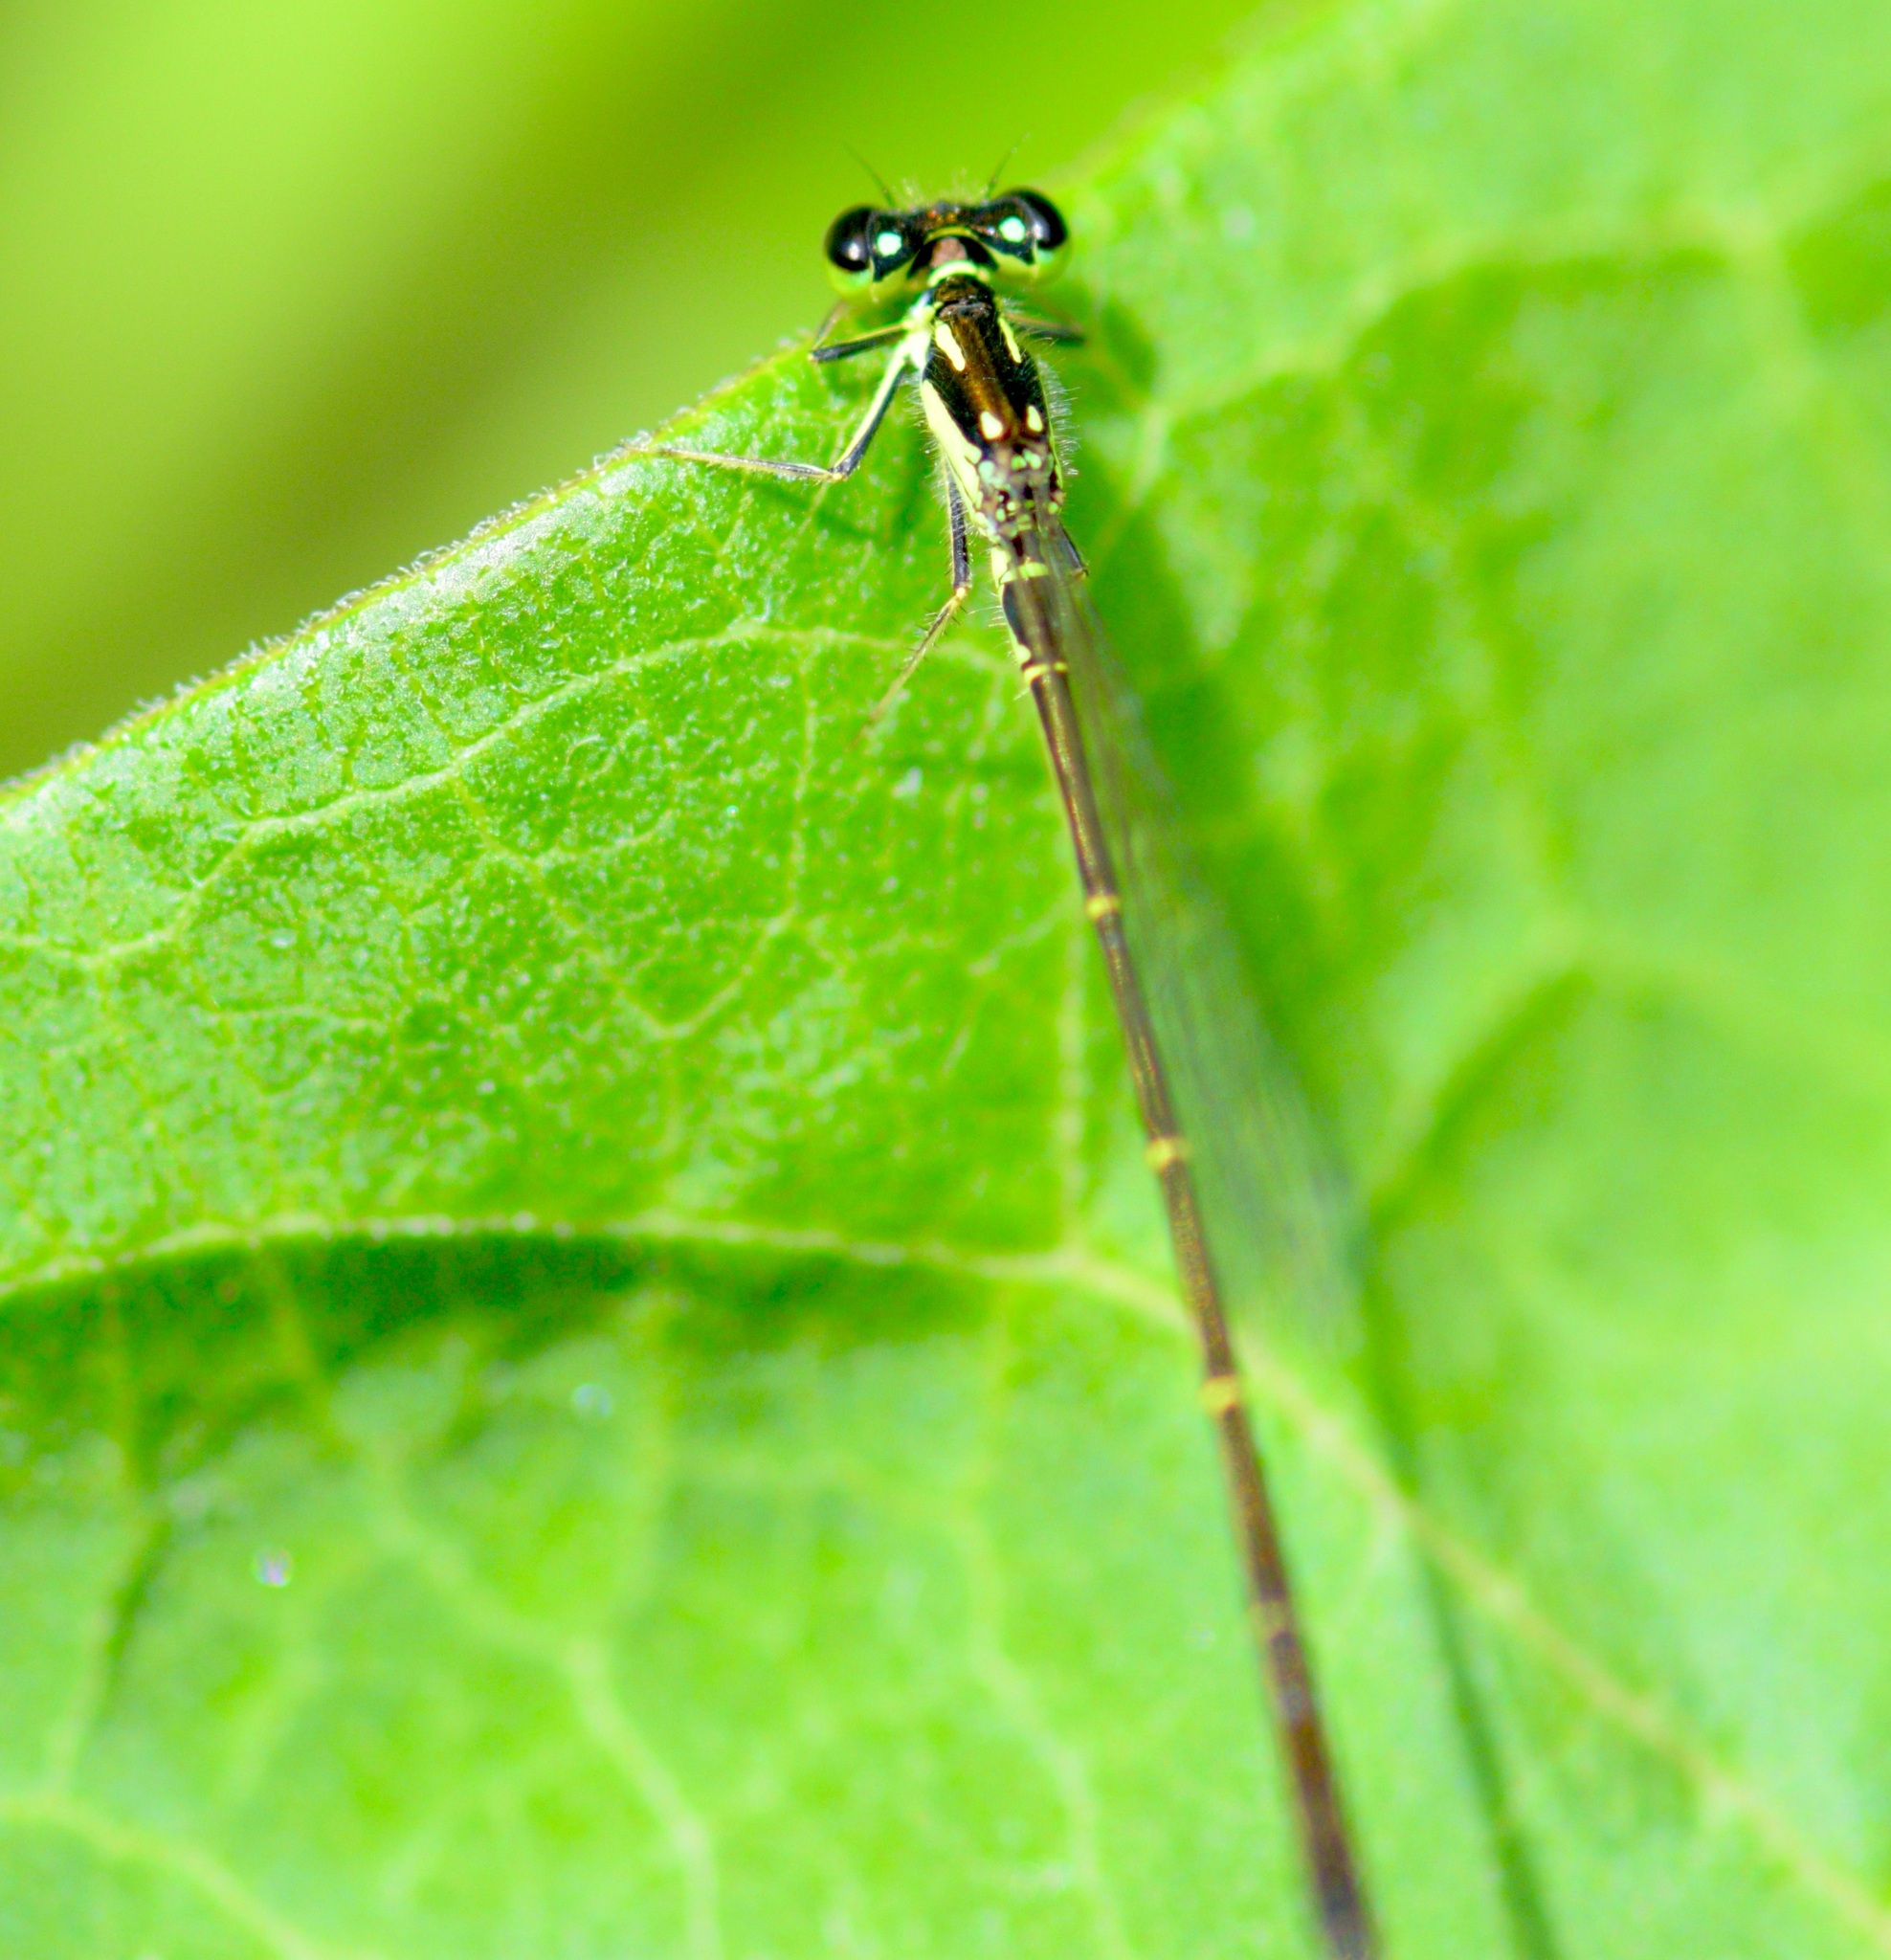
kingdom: Animalia
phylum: Arthropoda
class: Insecta
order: Odonata
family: Coenagrionidae
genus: Ischnura
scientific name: Ischnura posita
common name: Fragile forktail
